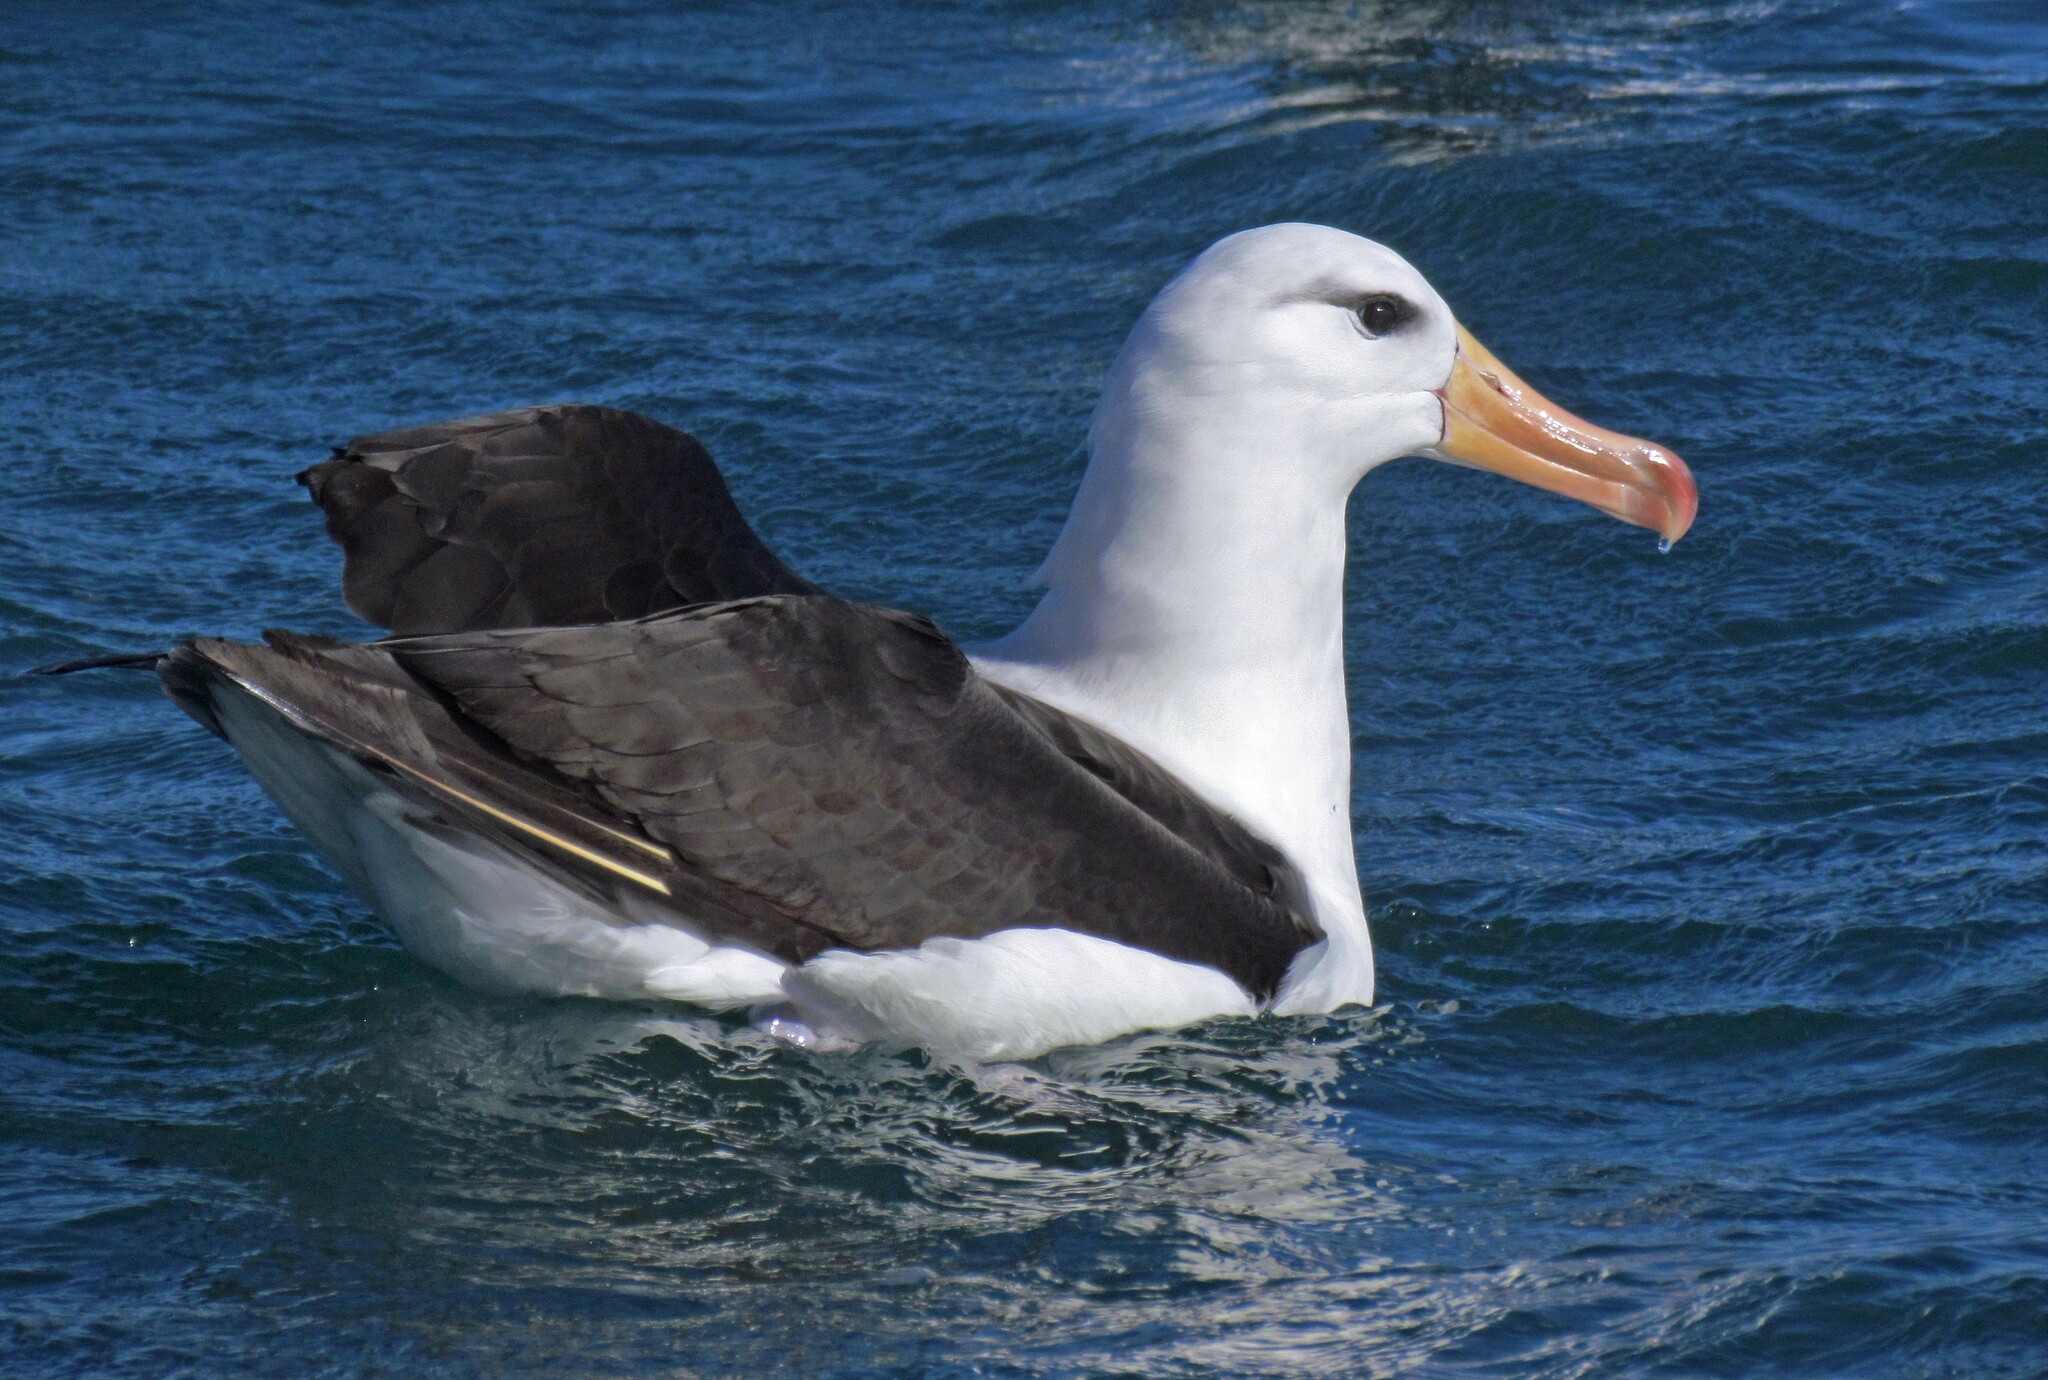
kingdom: Animalia
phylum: Chordata
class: Aves
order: Procellariiformes
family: Diomedeidae
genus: Thalassarche
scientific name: Thalassarche melanophris
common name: Black-browed albatross
